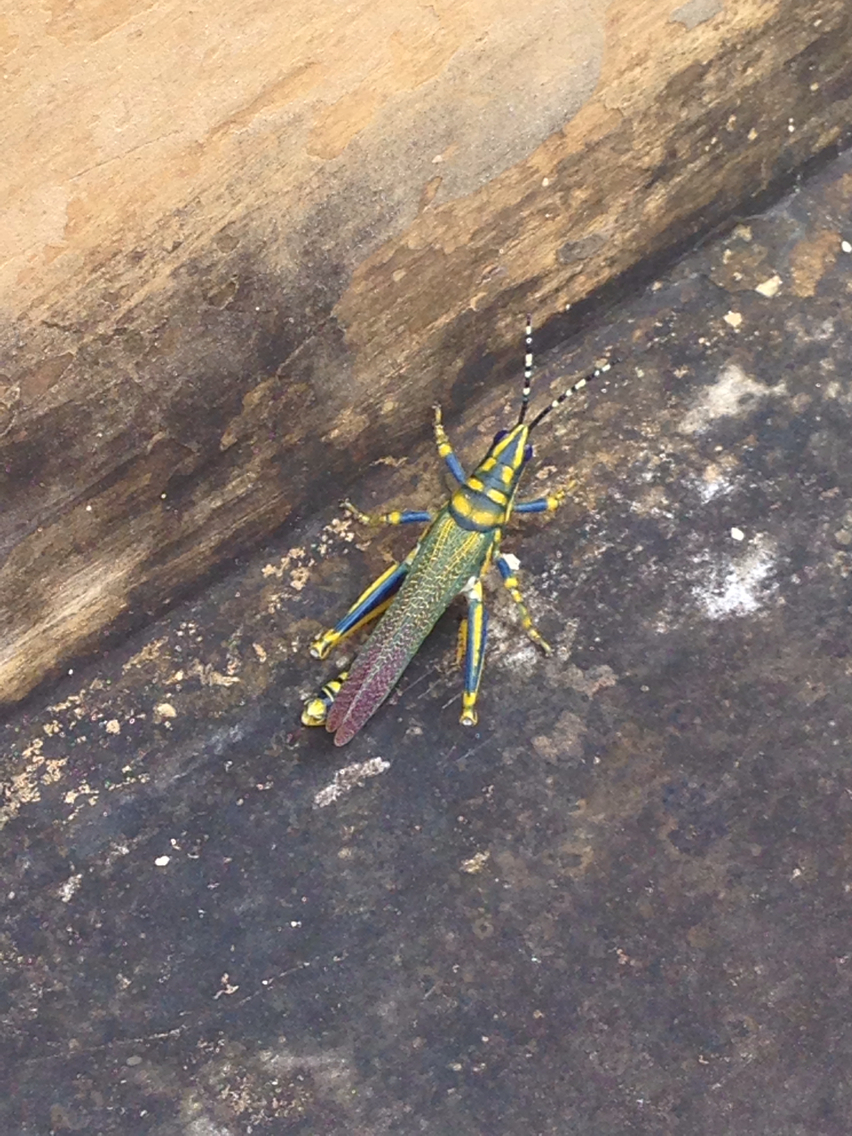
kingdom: Animalia
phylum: Arthropoda
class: Insecta
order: Orthoptera
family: Pyrgomorphidae
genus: Poekilocerus
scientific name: Poekilocerus pictus
